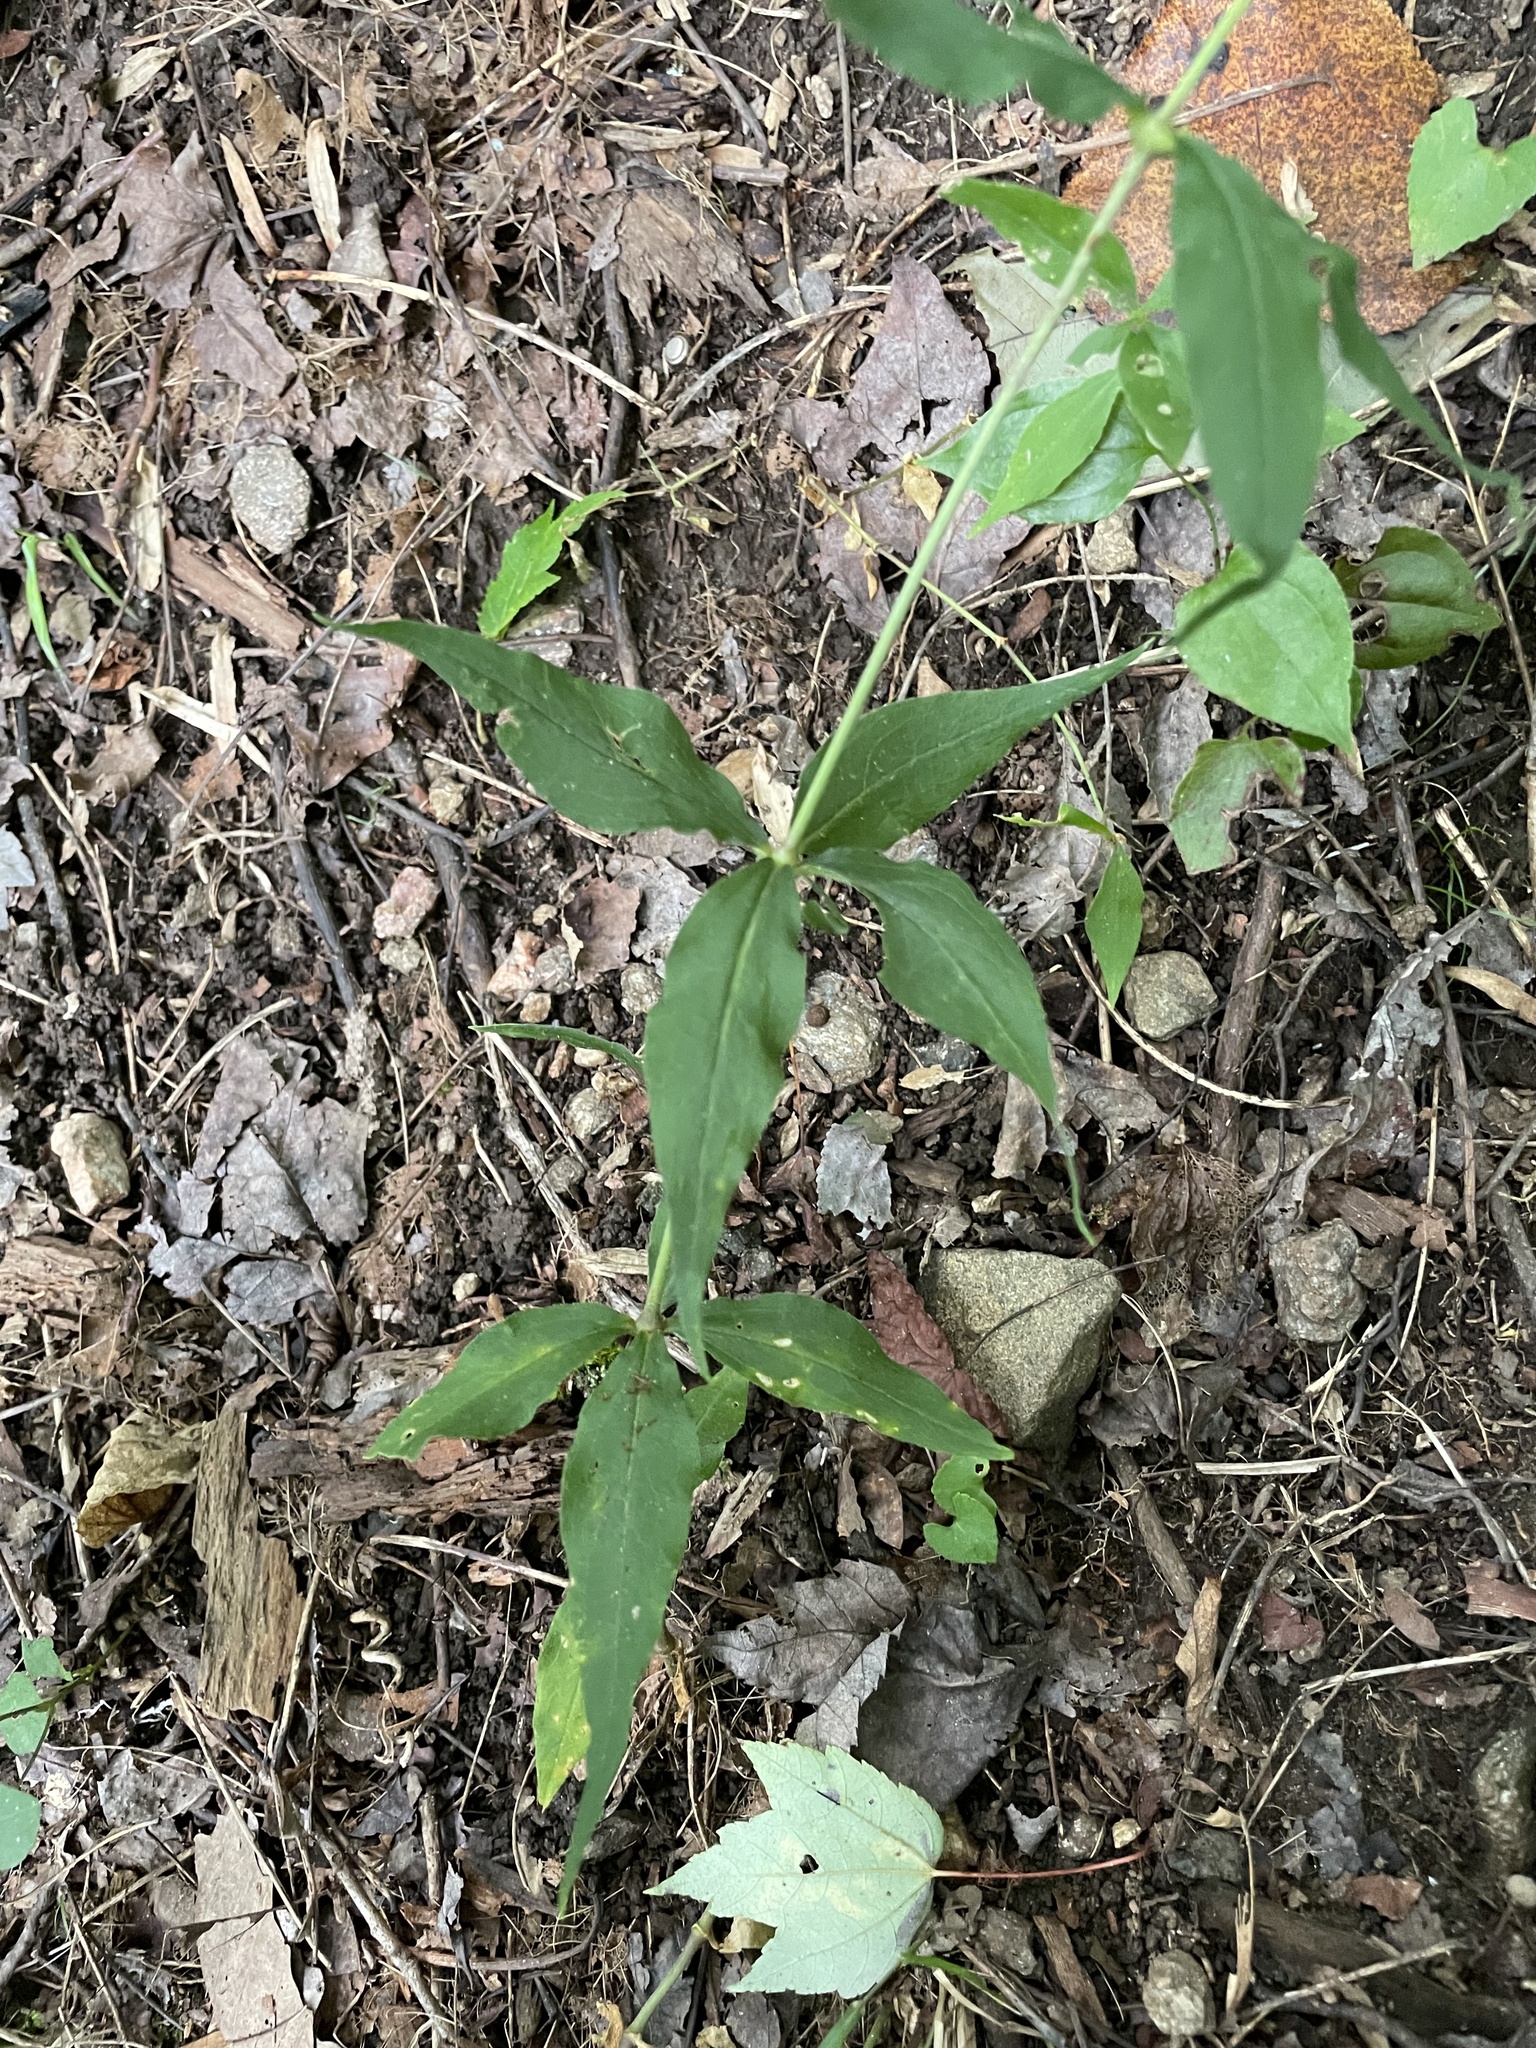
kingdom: Plantae
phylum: Tracheophyta
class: Magnoliopsida
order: Caryophyllales
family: Caryophyllaceae
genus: Silene
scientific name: Silene stellata
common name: Starry campion
